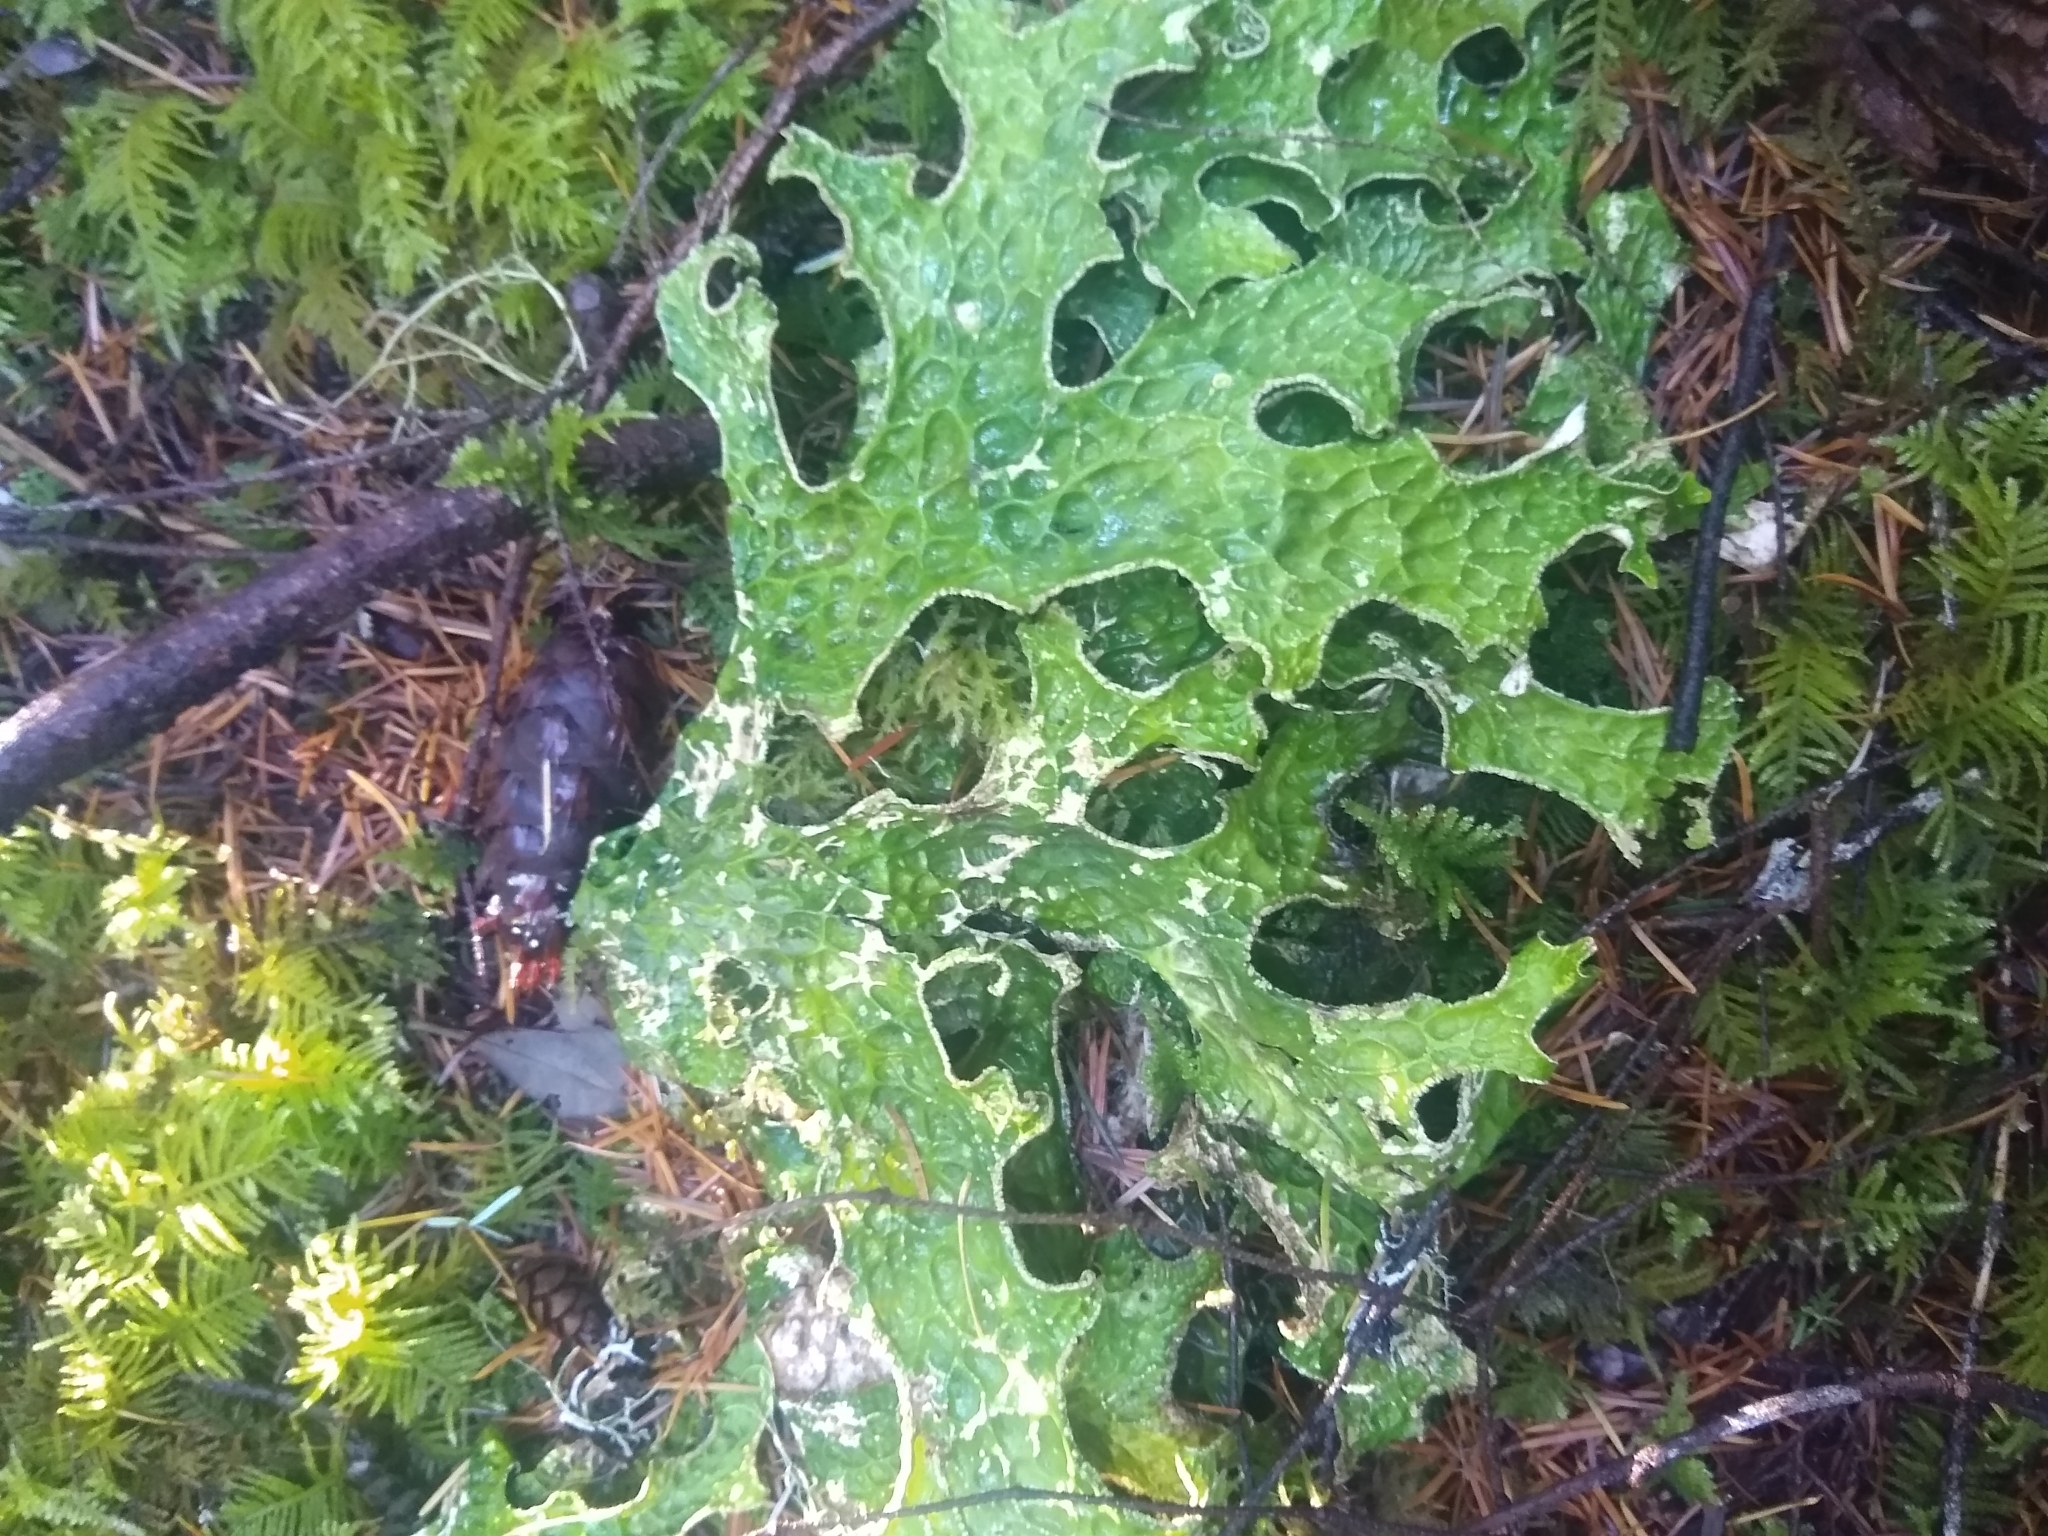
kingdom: Fungi
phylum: Ascomycota
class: Lecanoromycetes
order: Peltigerales
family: Lobariaceae
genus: Lobaria
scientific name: Lobaria pulmonaria
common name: Lungwort
